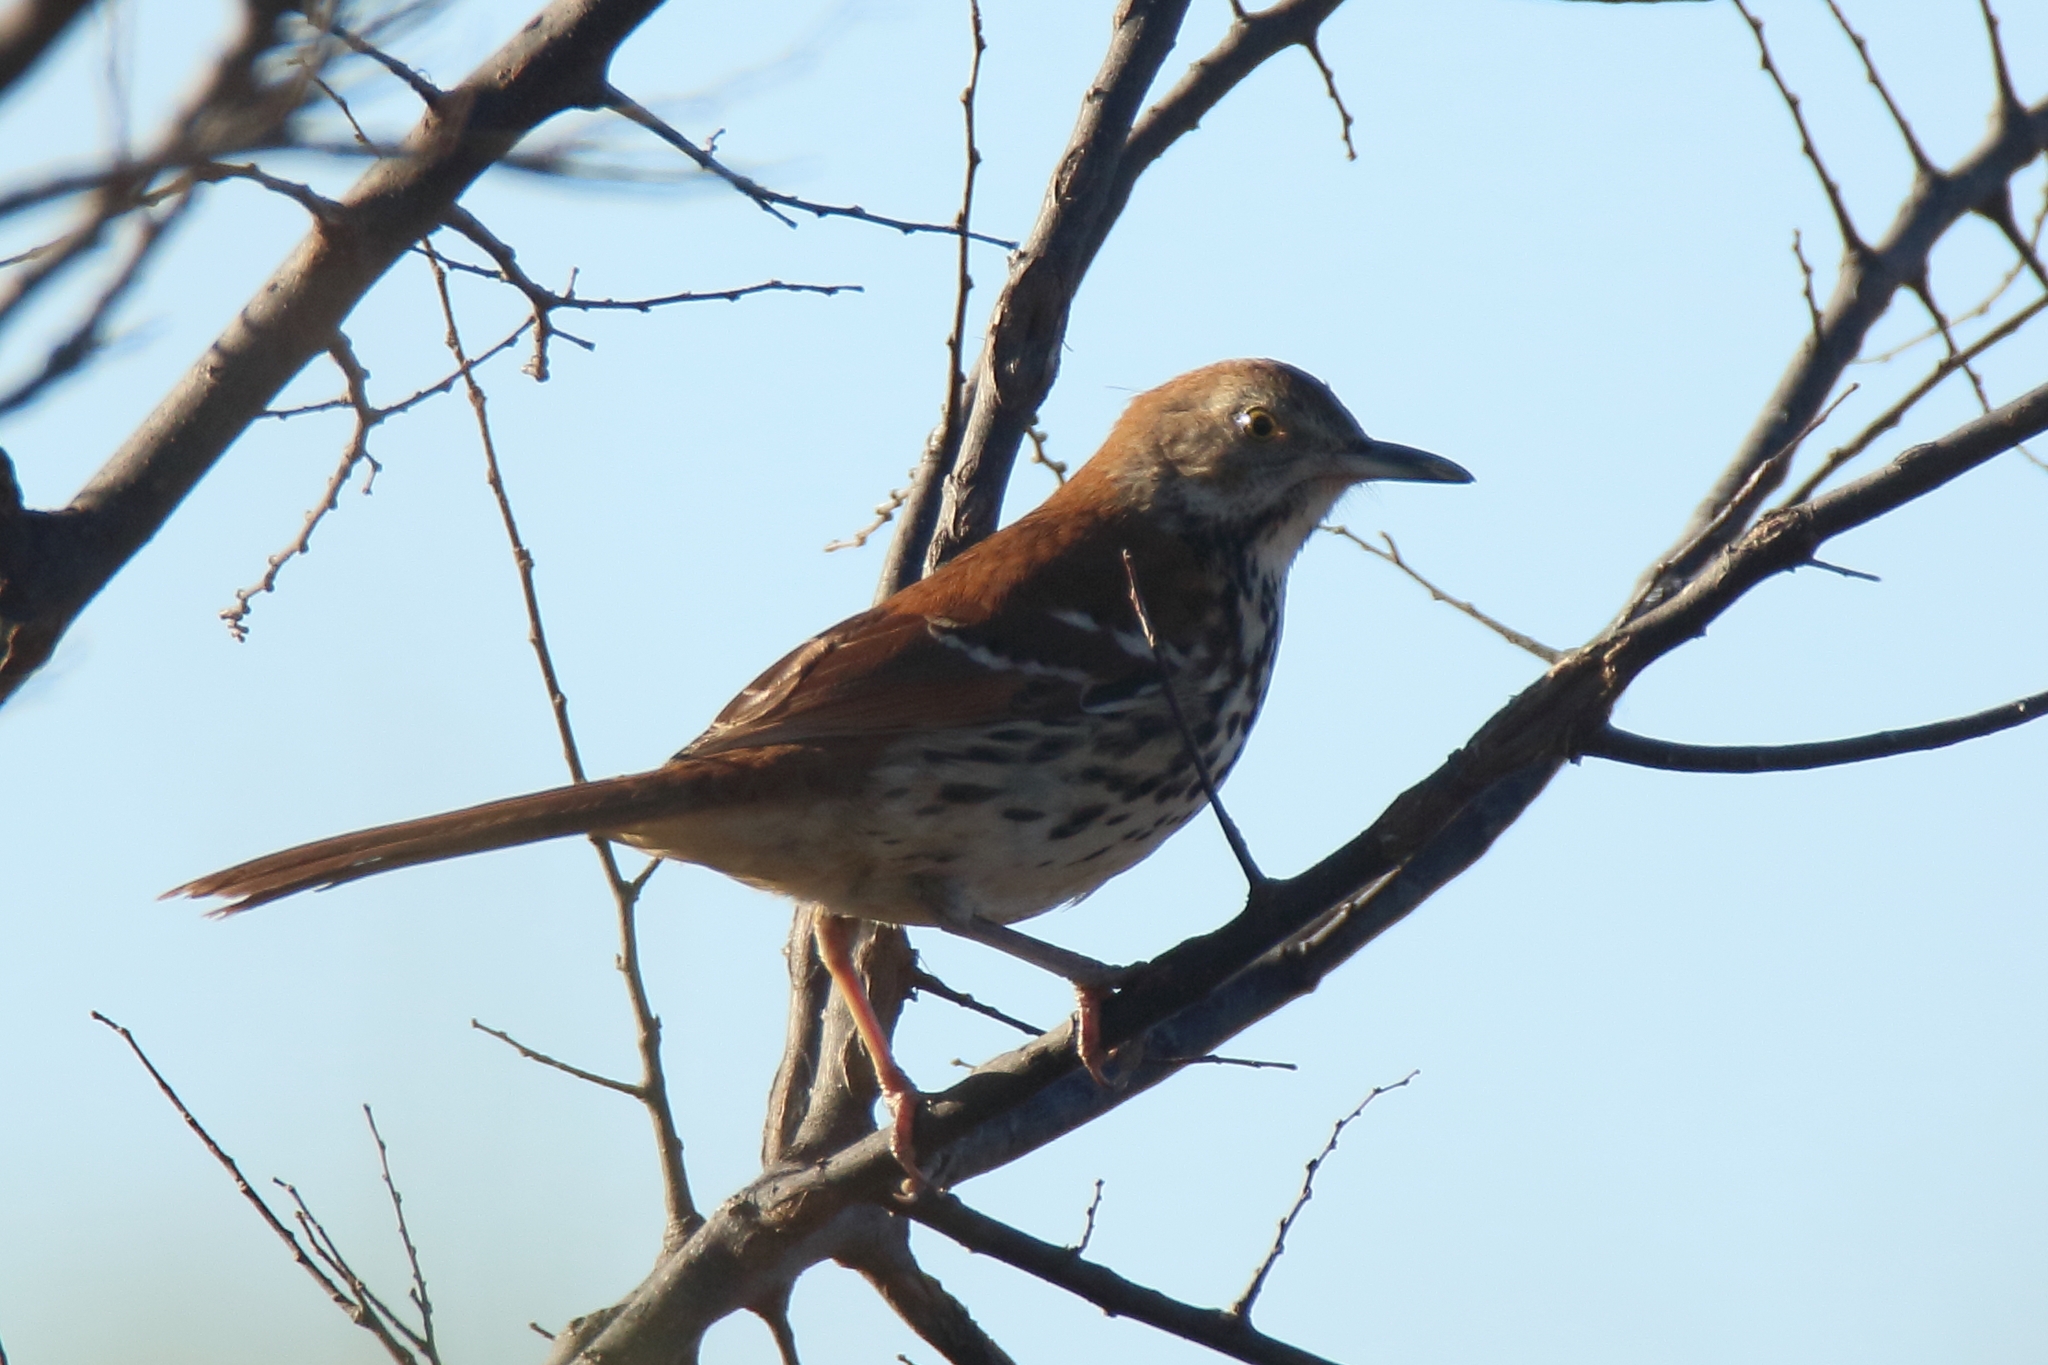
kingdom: Animalia
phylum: Chordata
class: Aves
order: Passeriformes
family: Mimidae
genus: Toxostoma
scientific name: Toxostoma rufum
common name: Brown thrasher
